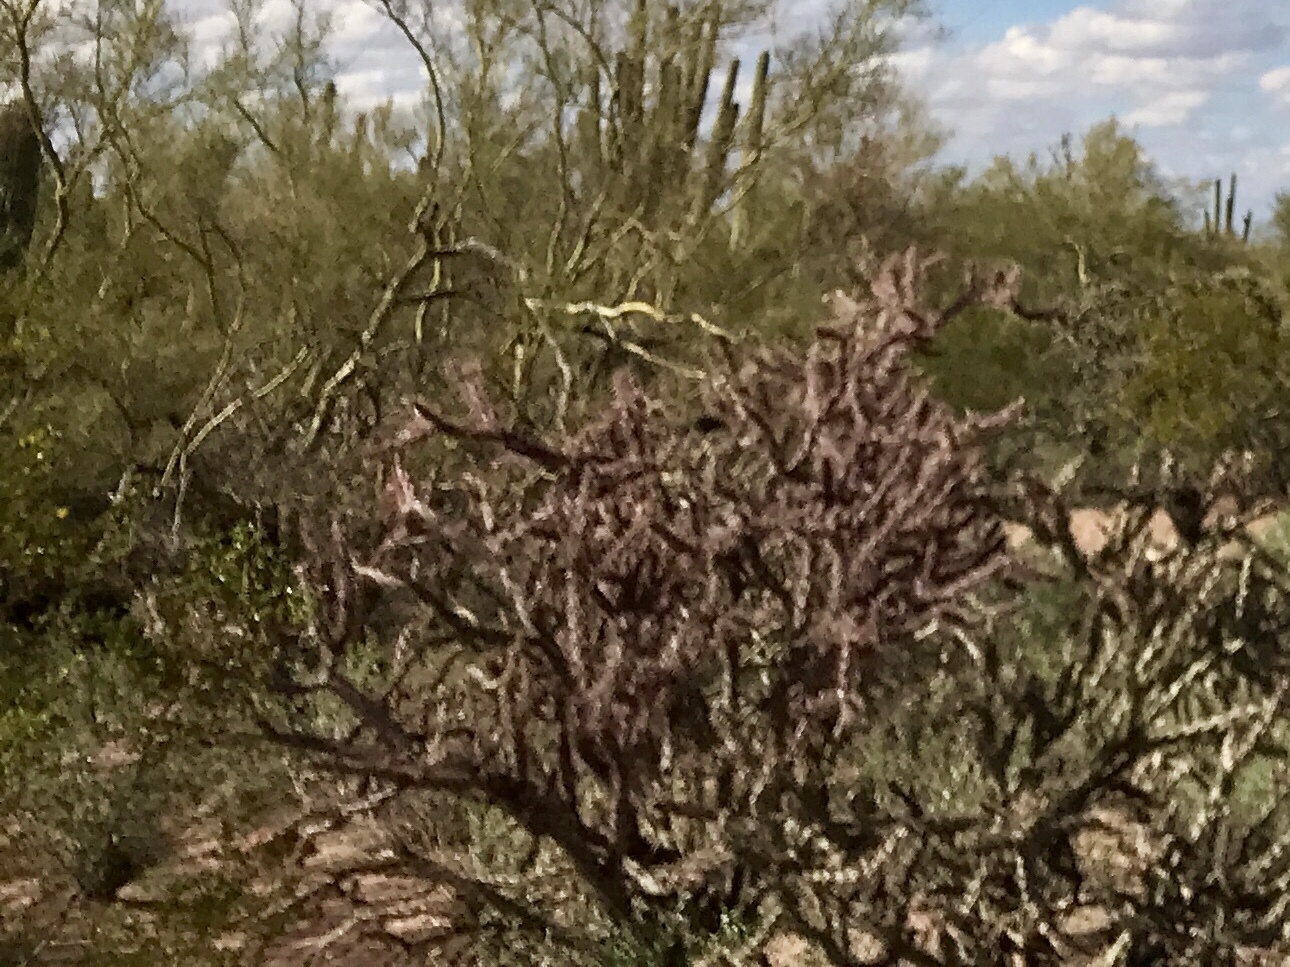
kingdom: Plantae
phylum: Tracheophyta
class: Magnoliopsida
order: Caryophyllales
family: Cactaceae
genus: Cylindropuntia
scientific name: Cylindropuntia thurberi
